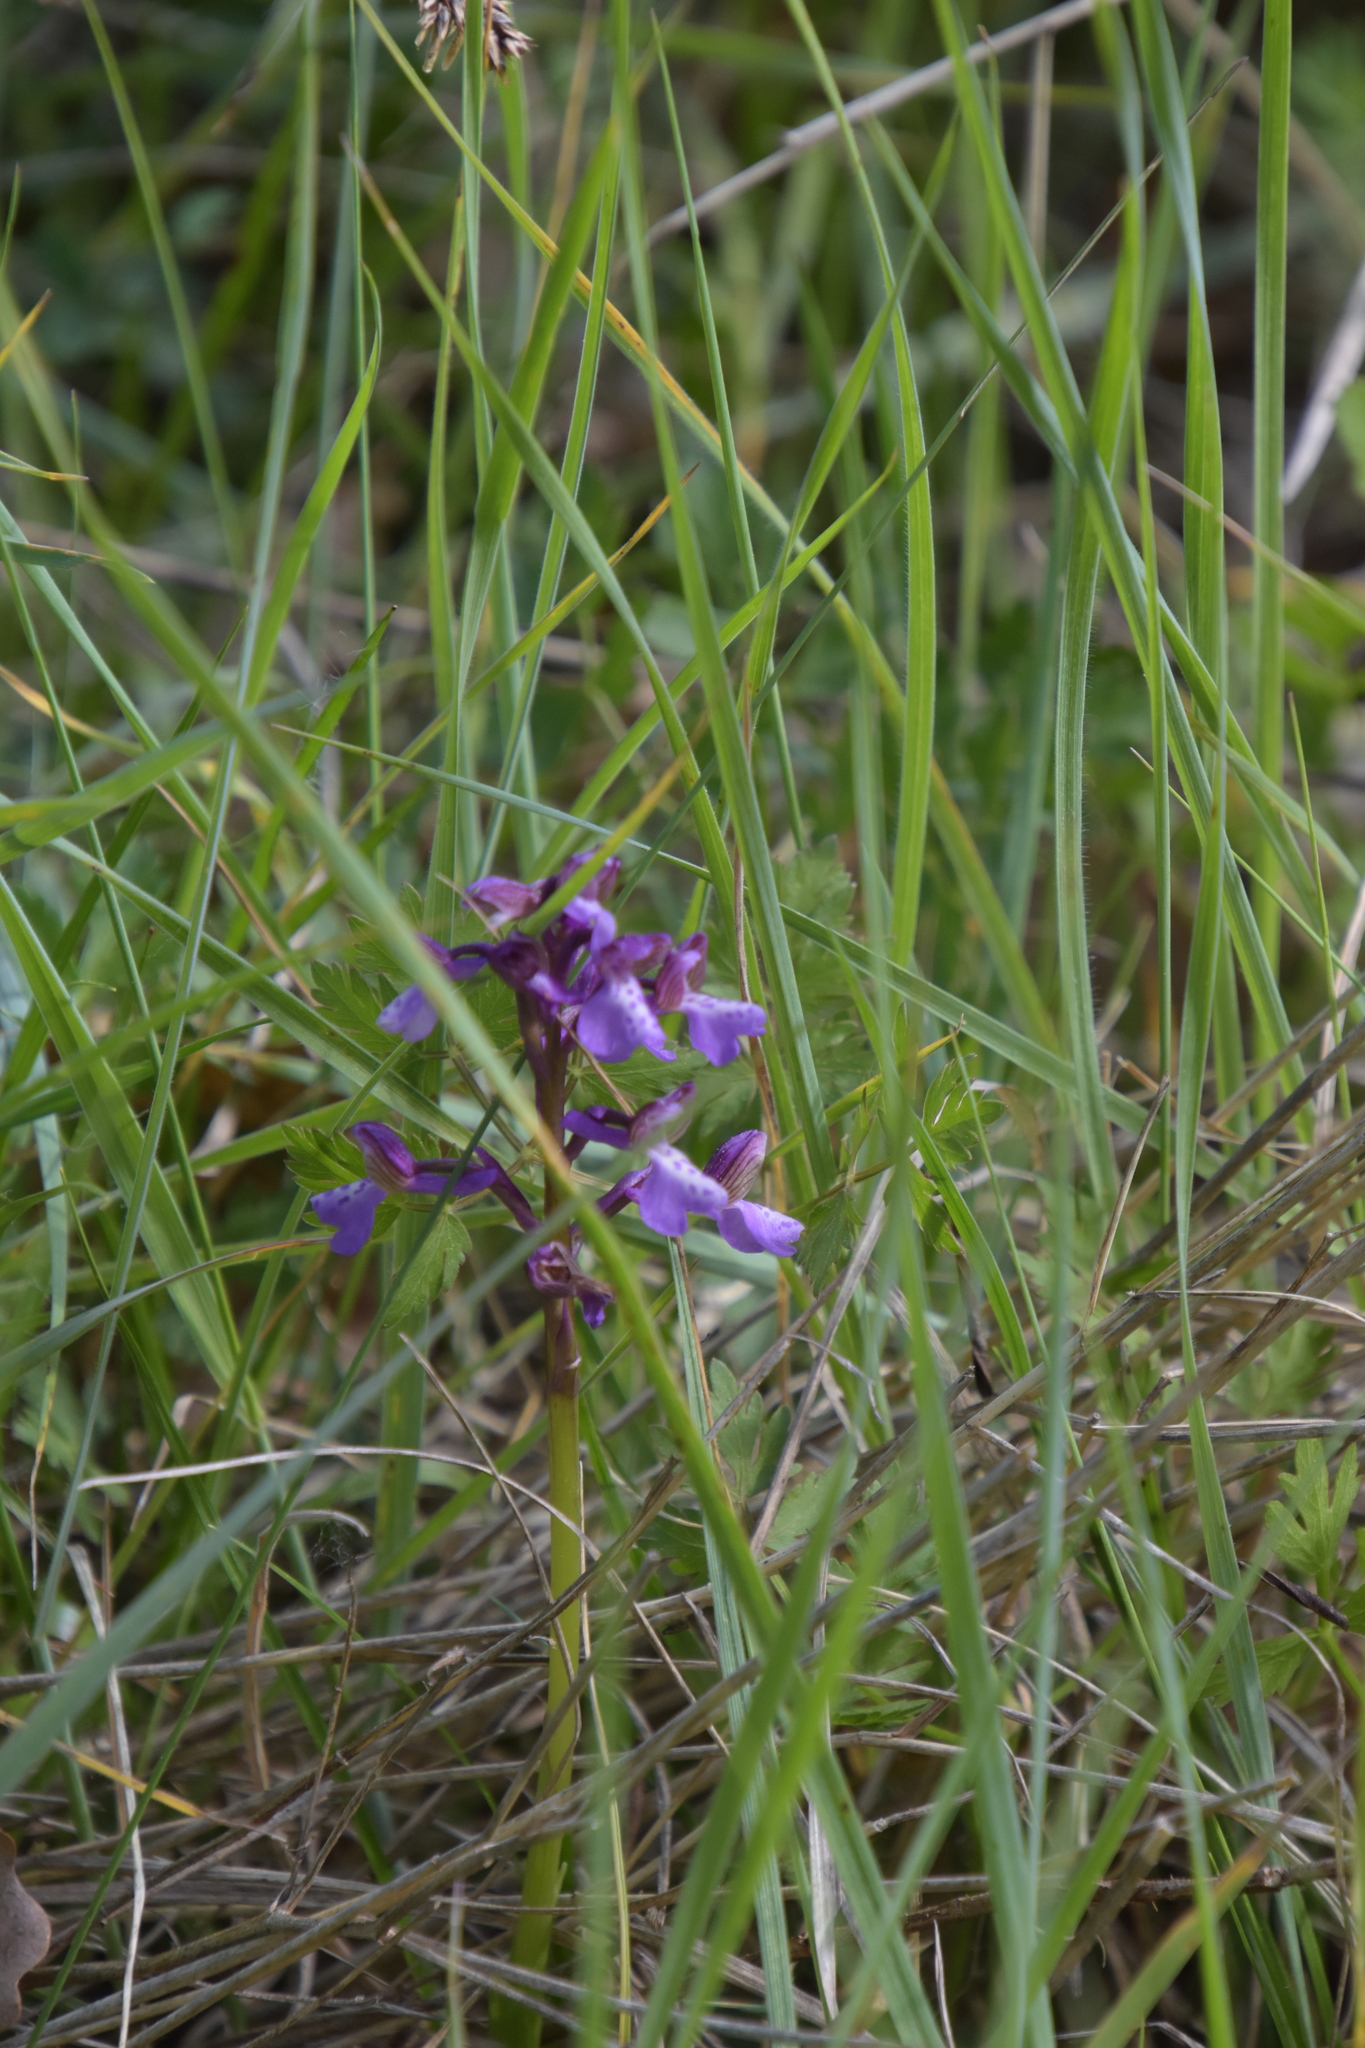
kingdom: Plantae
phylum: Tracheophyta
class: Liliopsida
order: Asparagales
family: Orchidaceae
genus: Anacamptis
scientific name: Anacamptis morio
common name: Green-winged orchid
